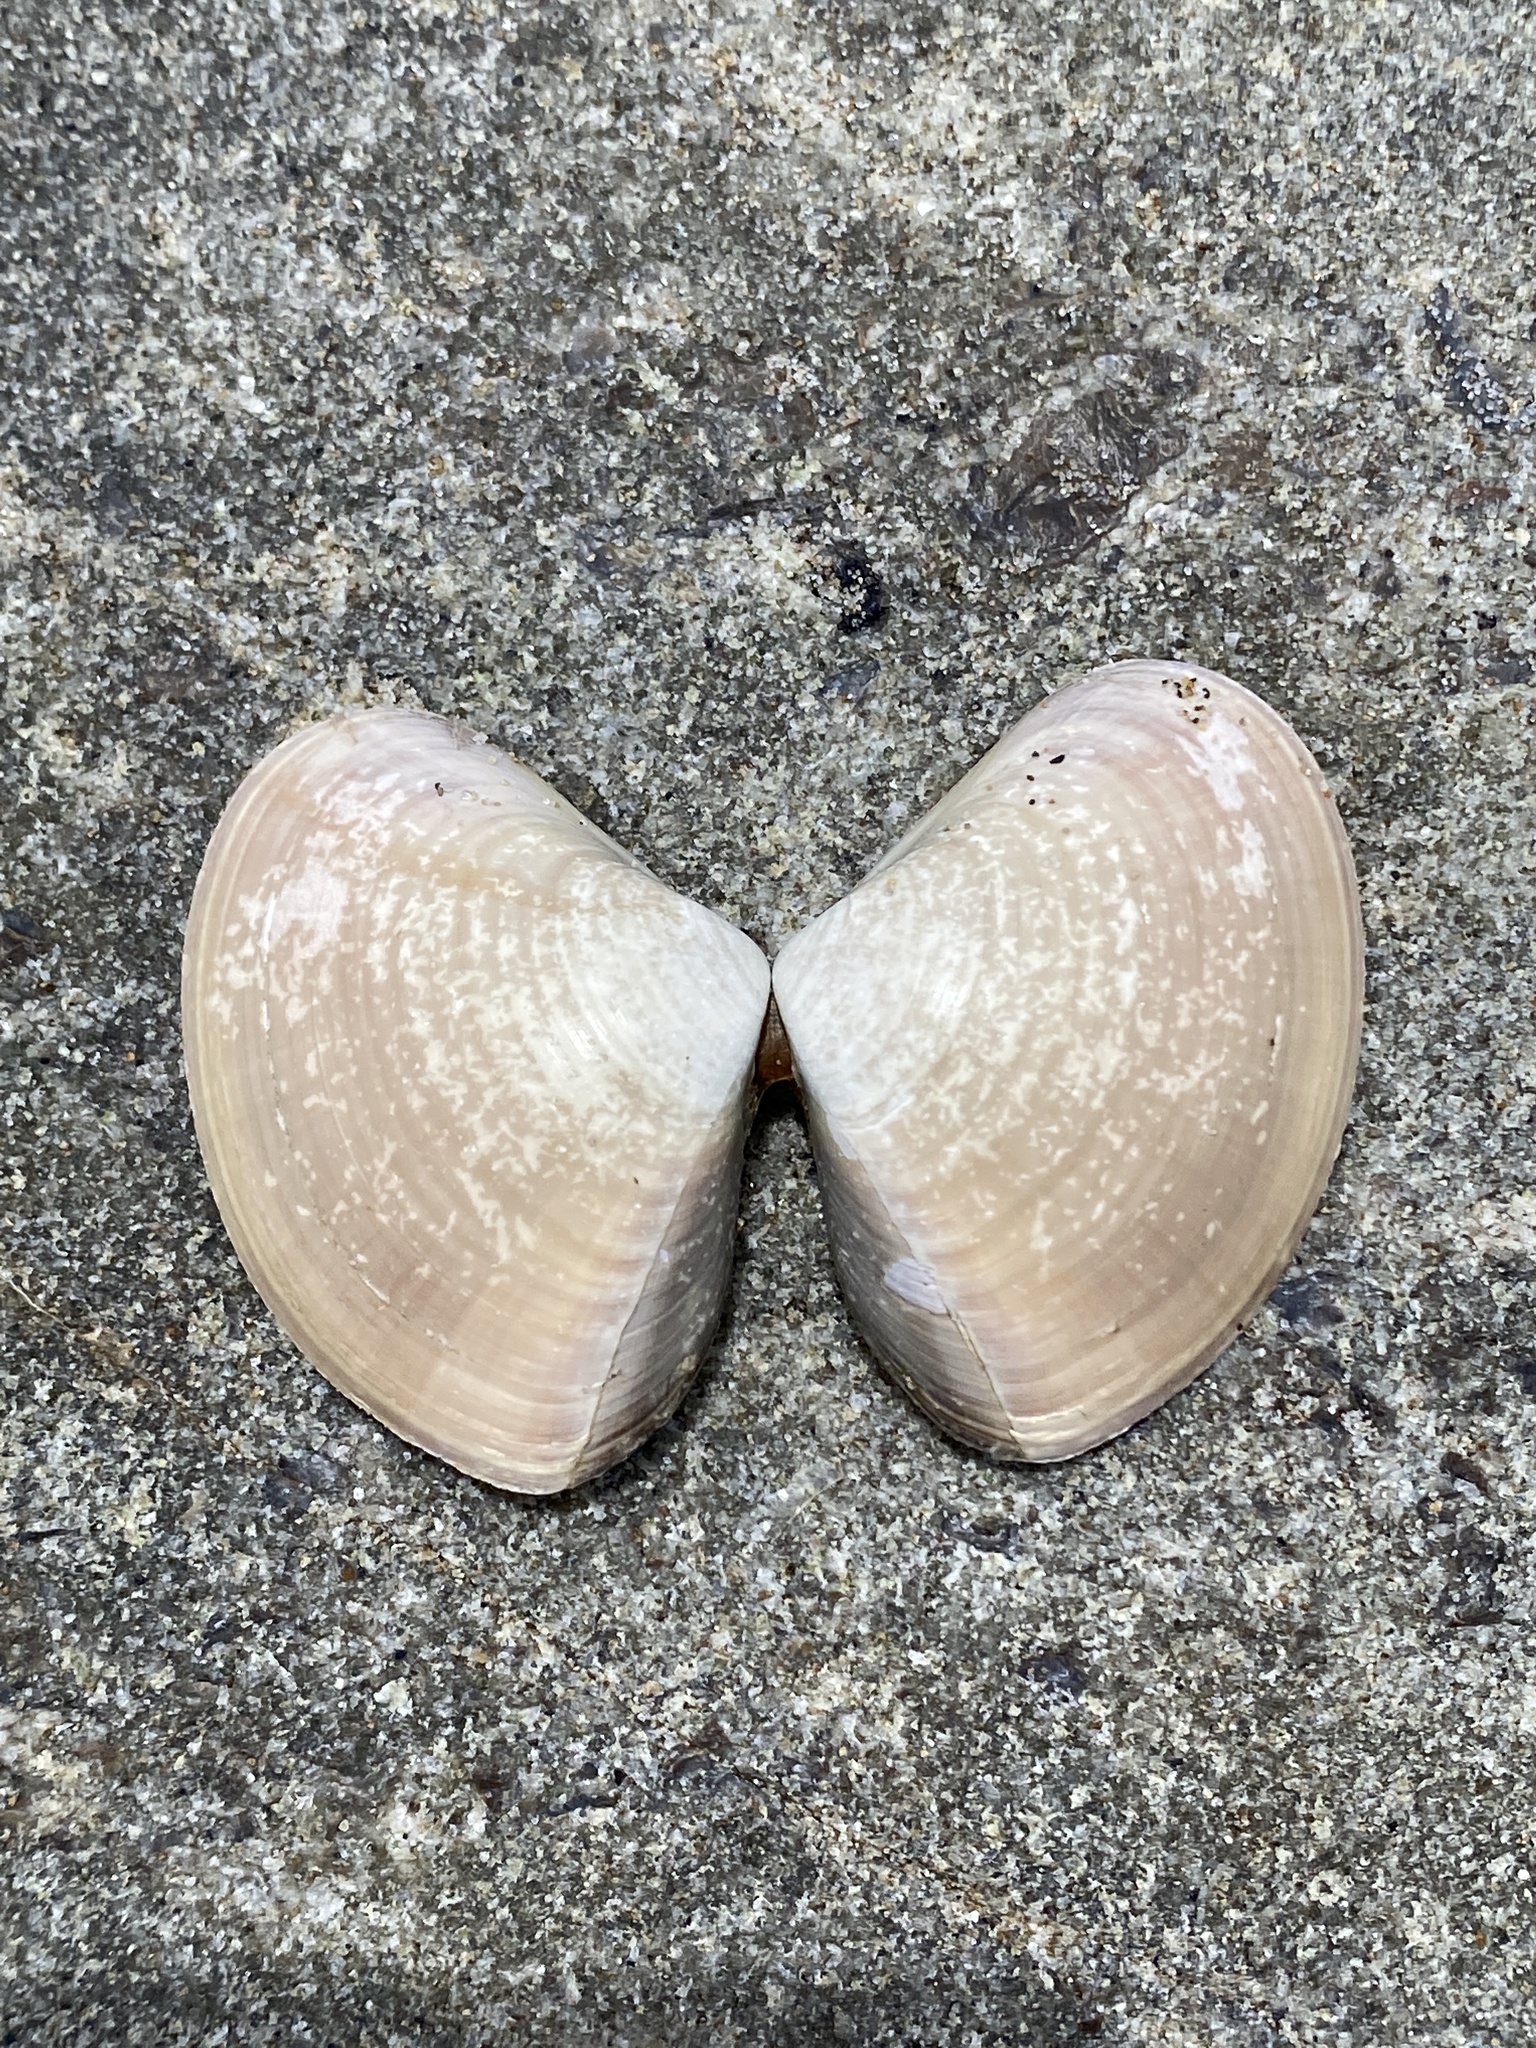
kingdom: Animalia
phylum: Mollusca
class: Bivalvia
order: Venerida
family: Veneridae
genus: Tivela
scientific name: Tivela stultorum
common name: Pismo clam
